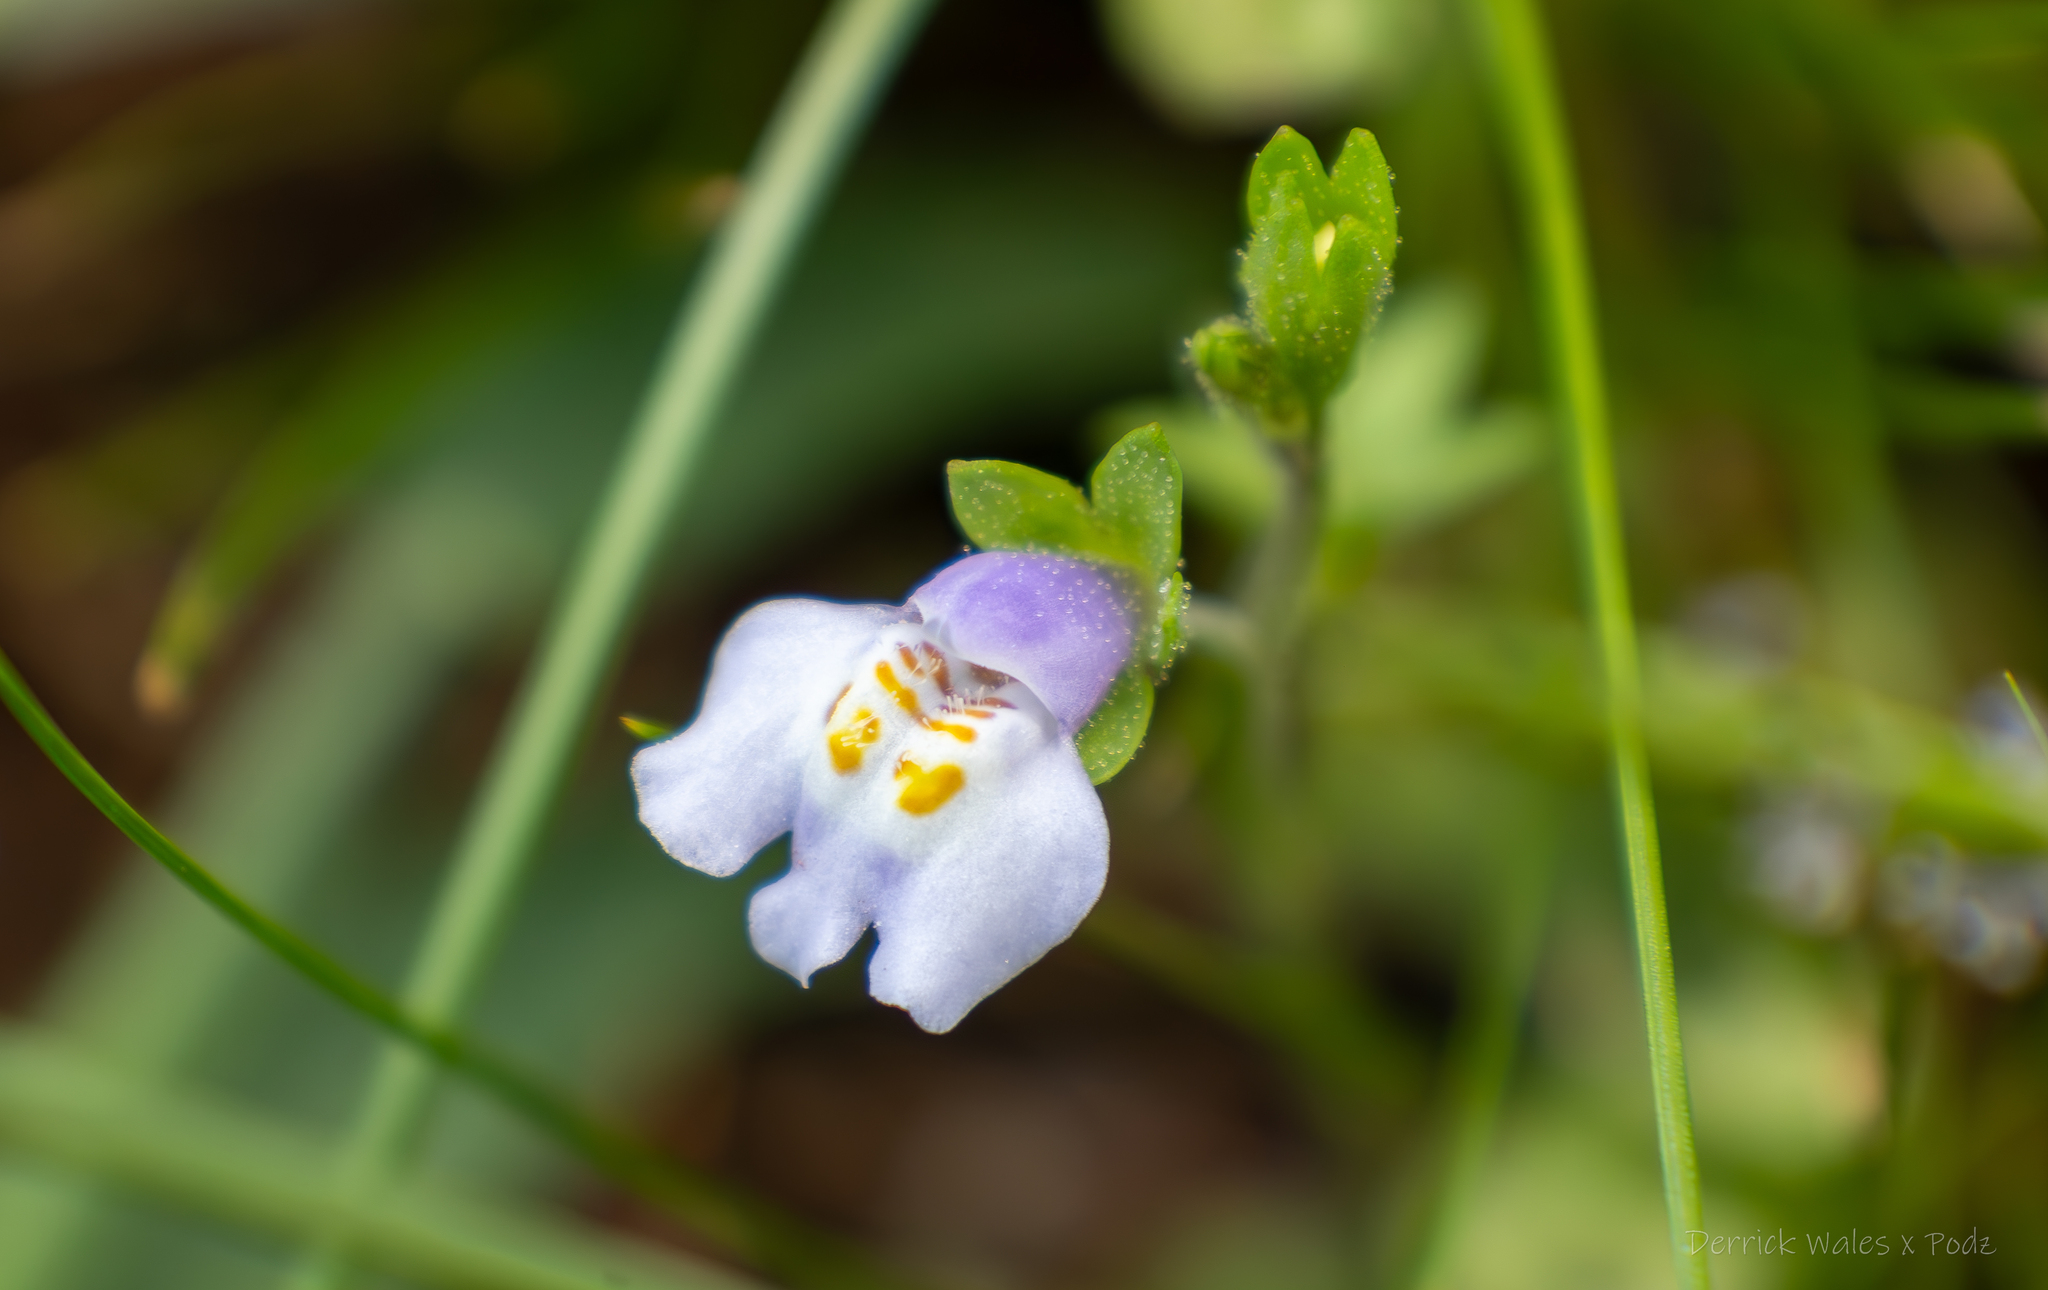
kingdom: Plantae
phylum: Tracheophyta
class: Magnoliopsida
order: Lamiales
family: Mazaceae
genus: Mazus
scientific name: Mazus pumilus
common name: Japanese mazus
